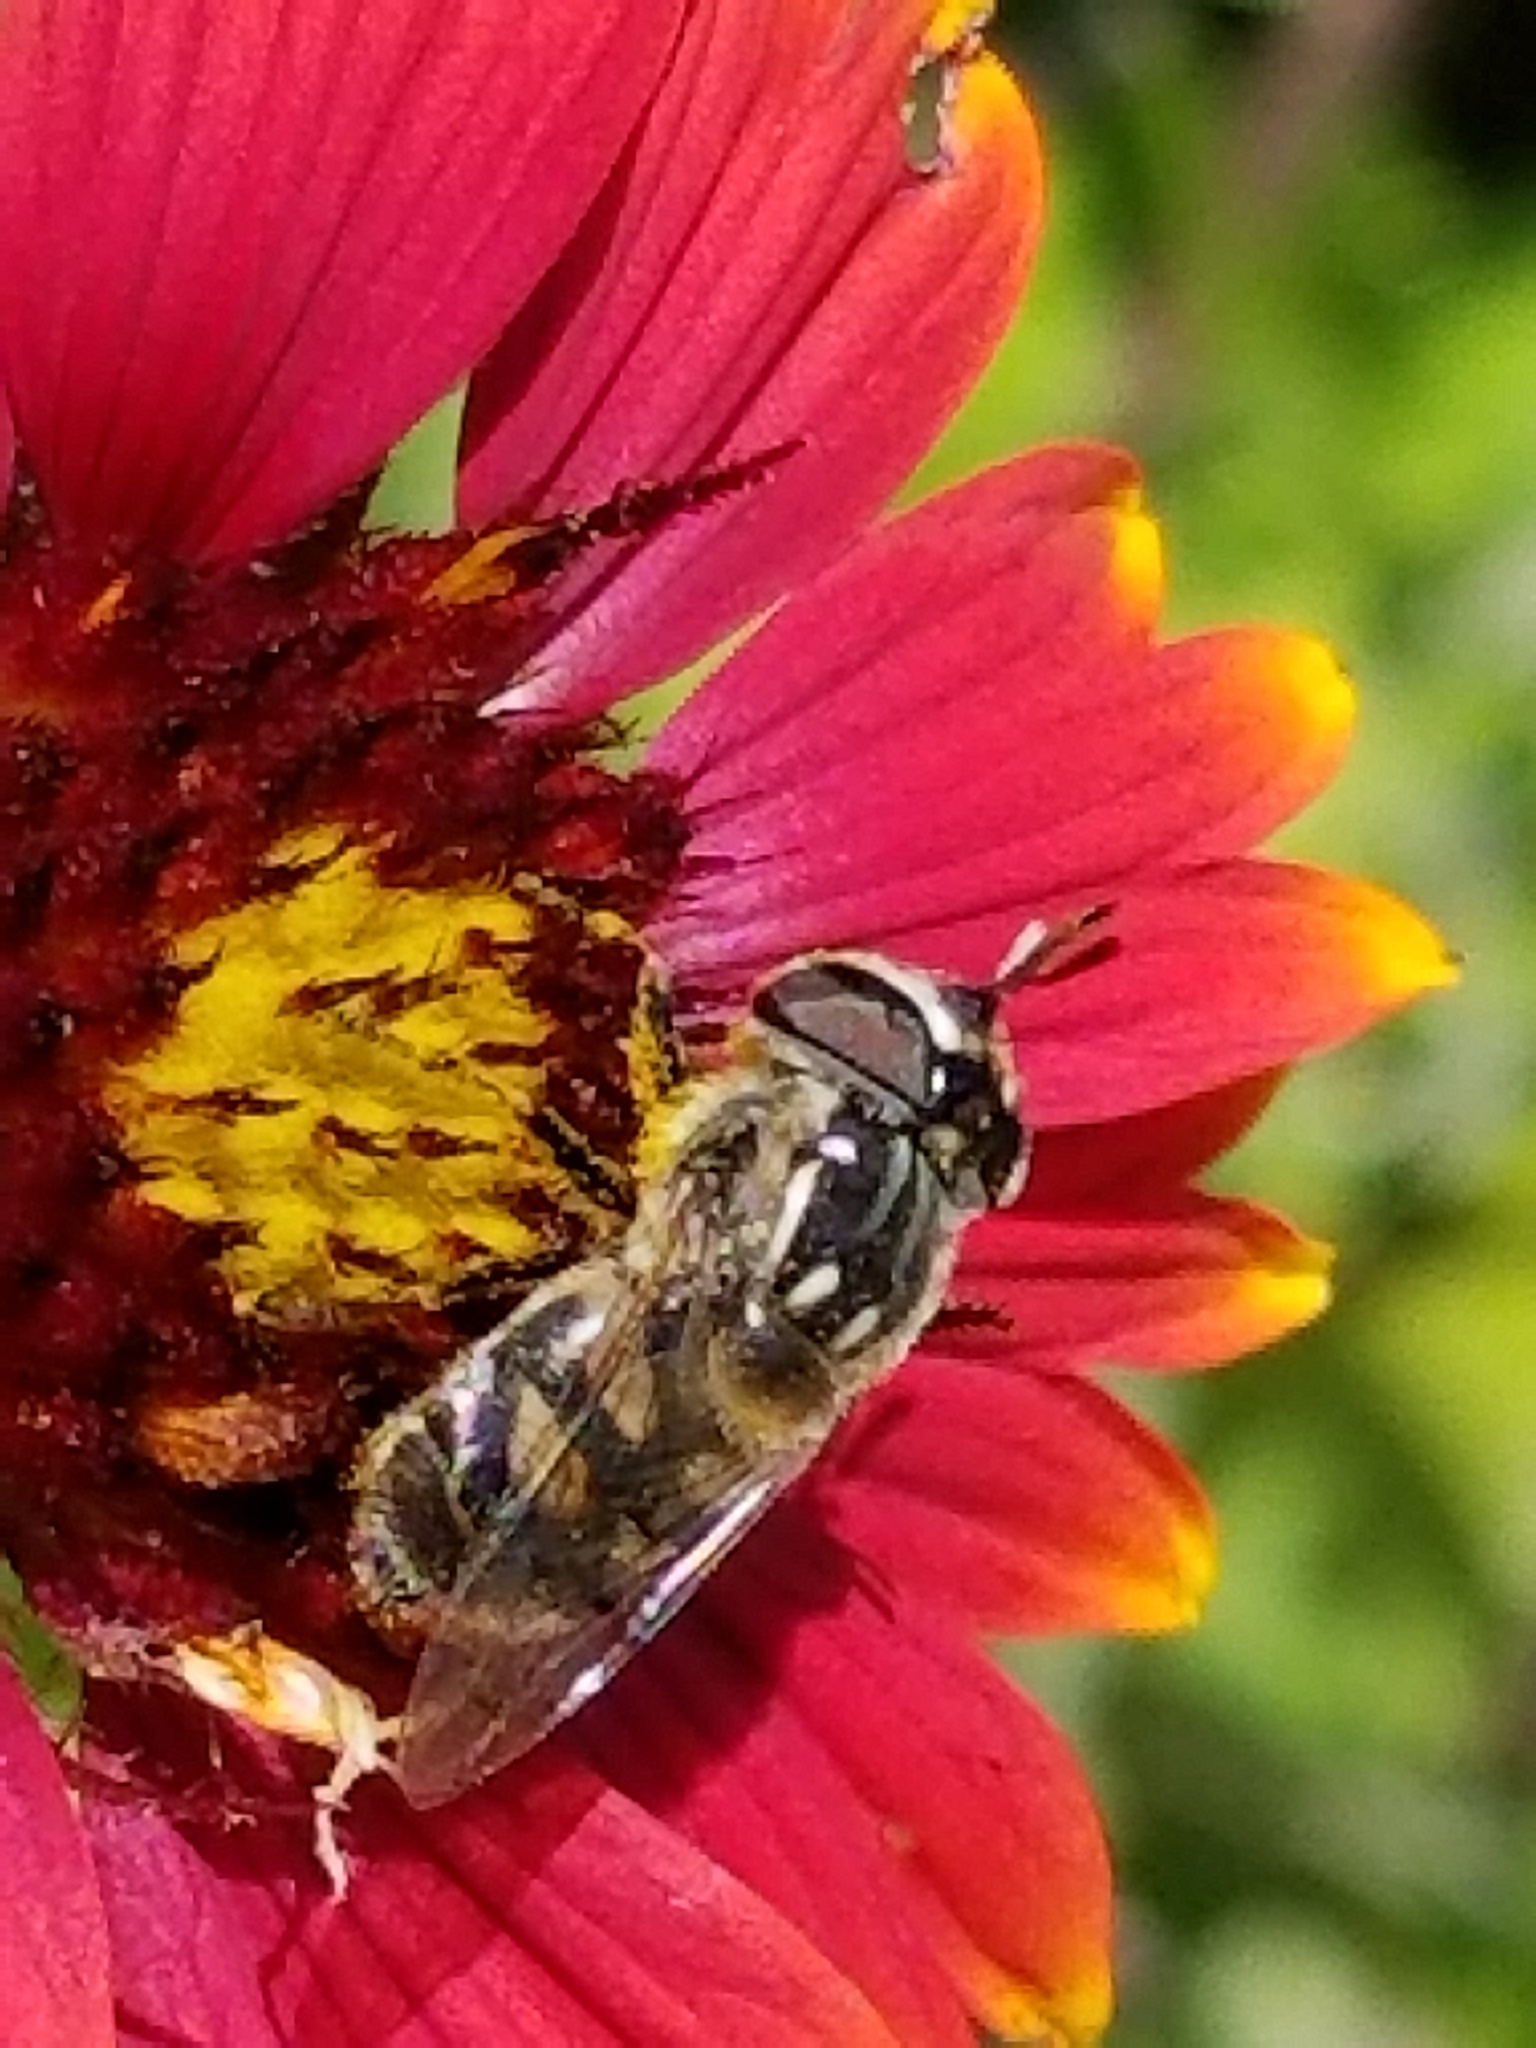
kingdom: Animalia
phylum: Arthropoda
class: Insecta
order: Diptera
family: Syrphidae
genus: Copestylum
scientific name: Copestylum
